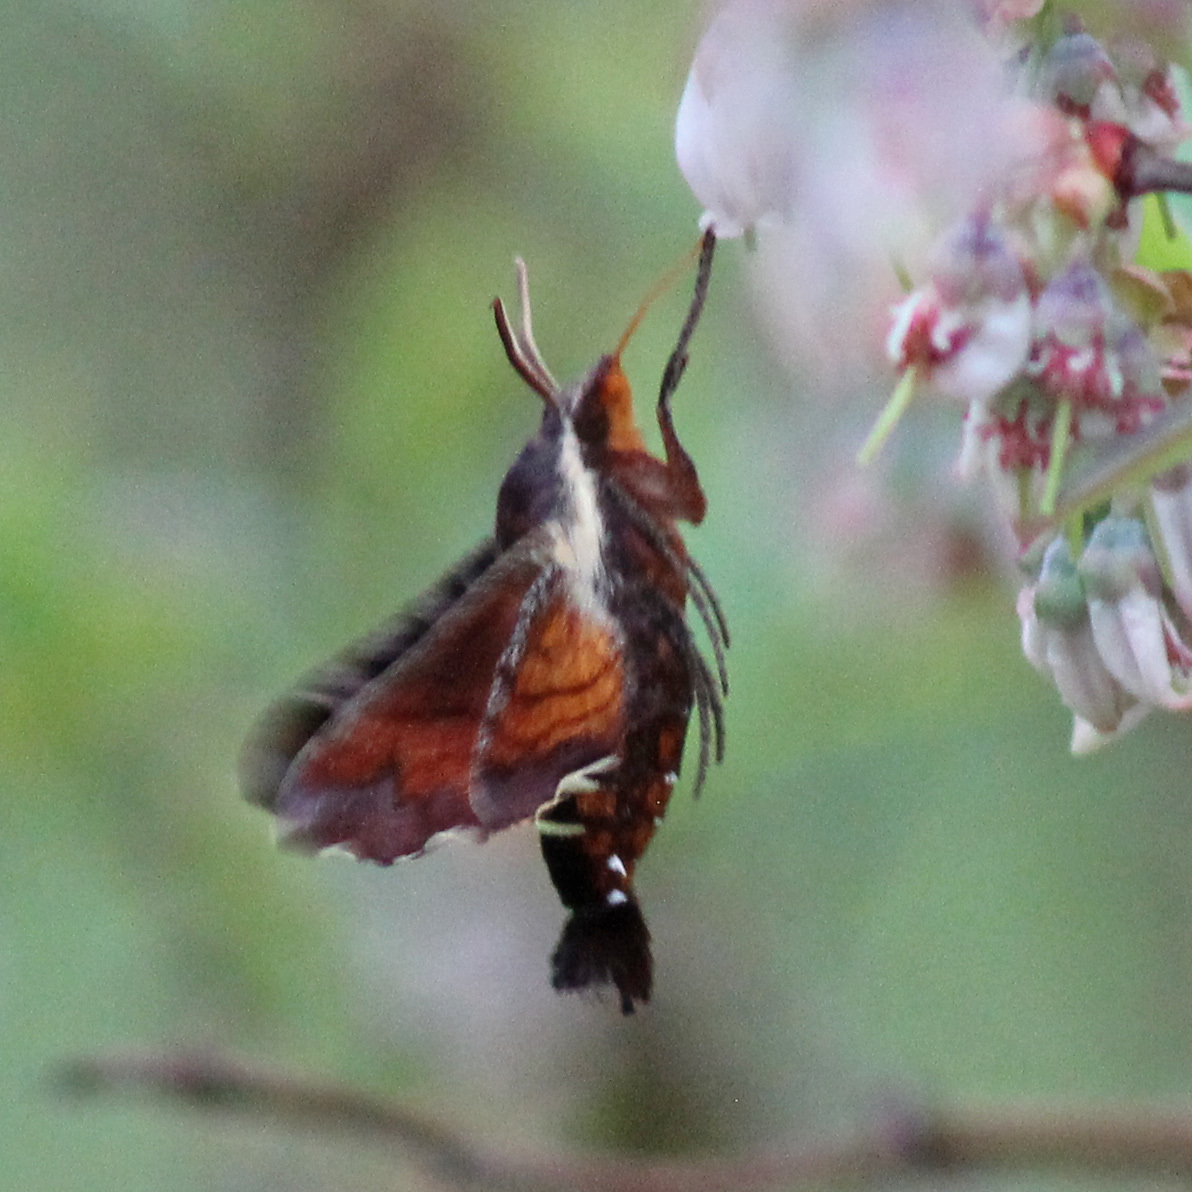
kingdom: Animalia
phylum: Arthropoda
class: Insecta
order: Lepidoptera
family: Sphingidae
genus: Amphion
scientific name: Amphion floridensis
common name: Nessus sphinx
